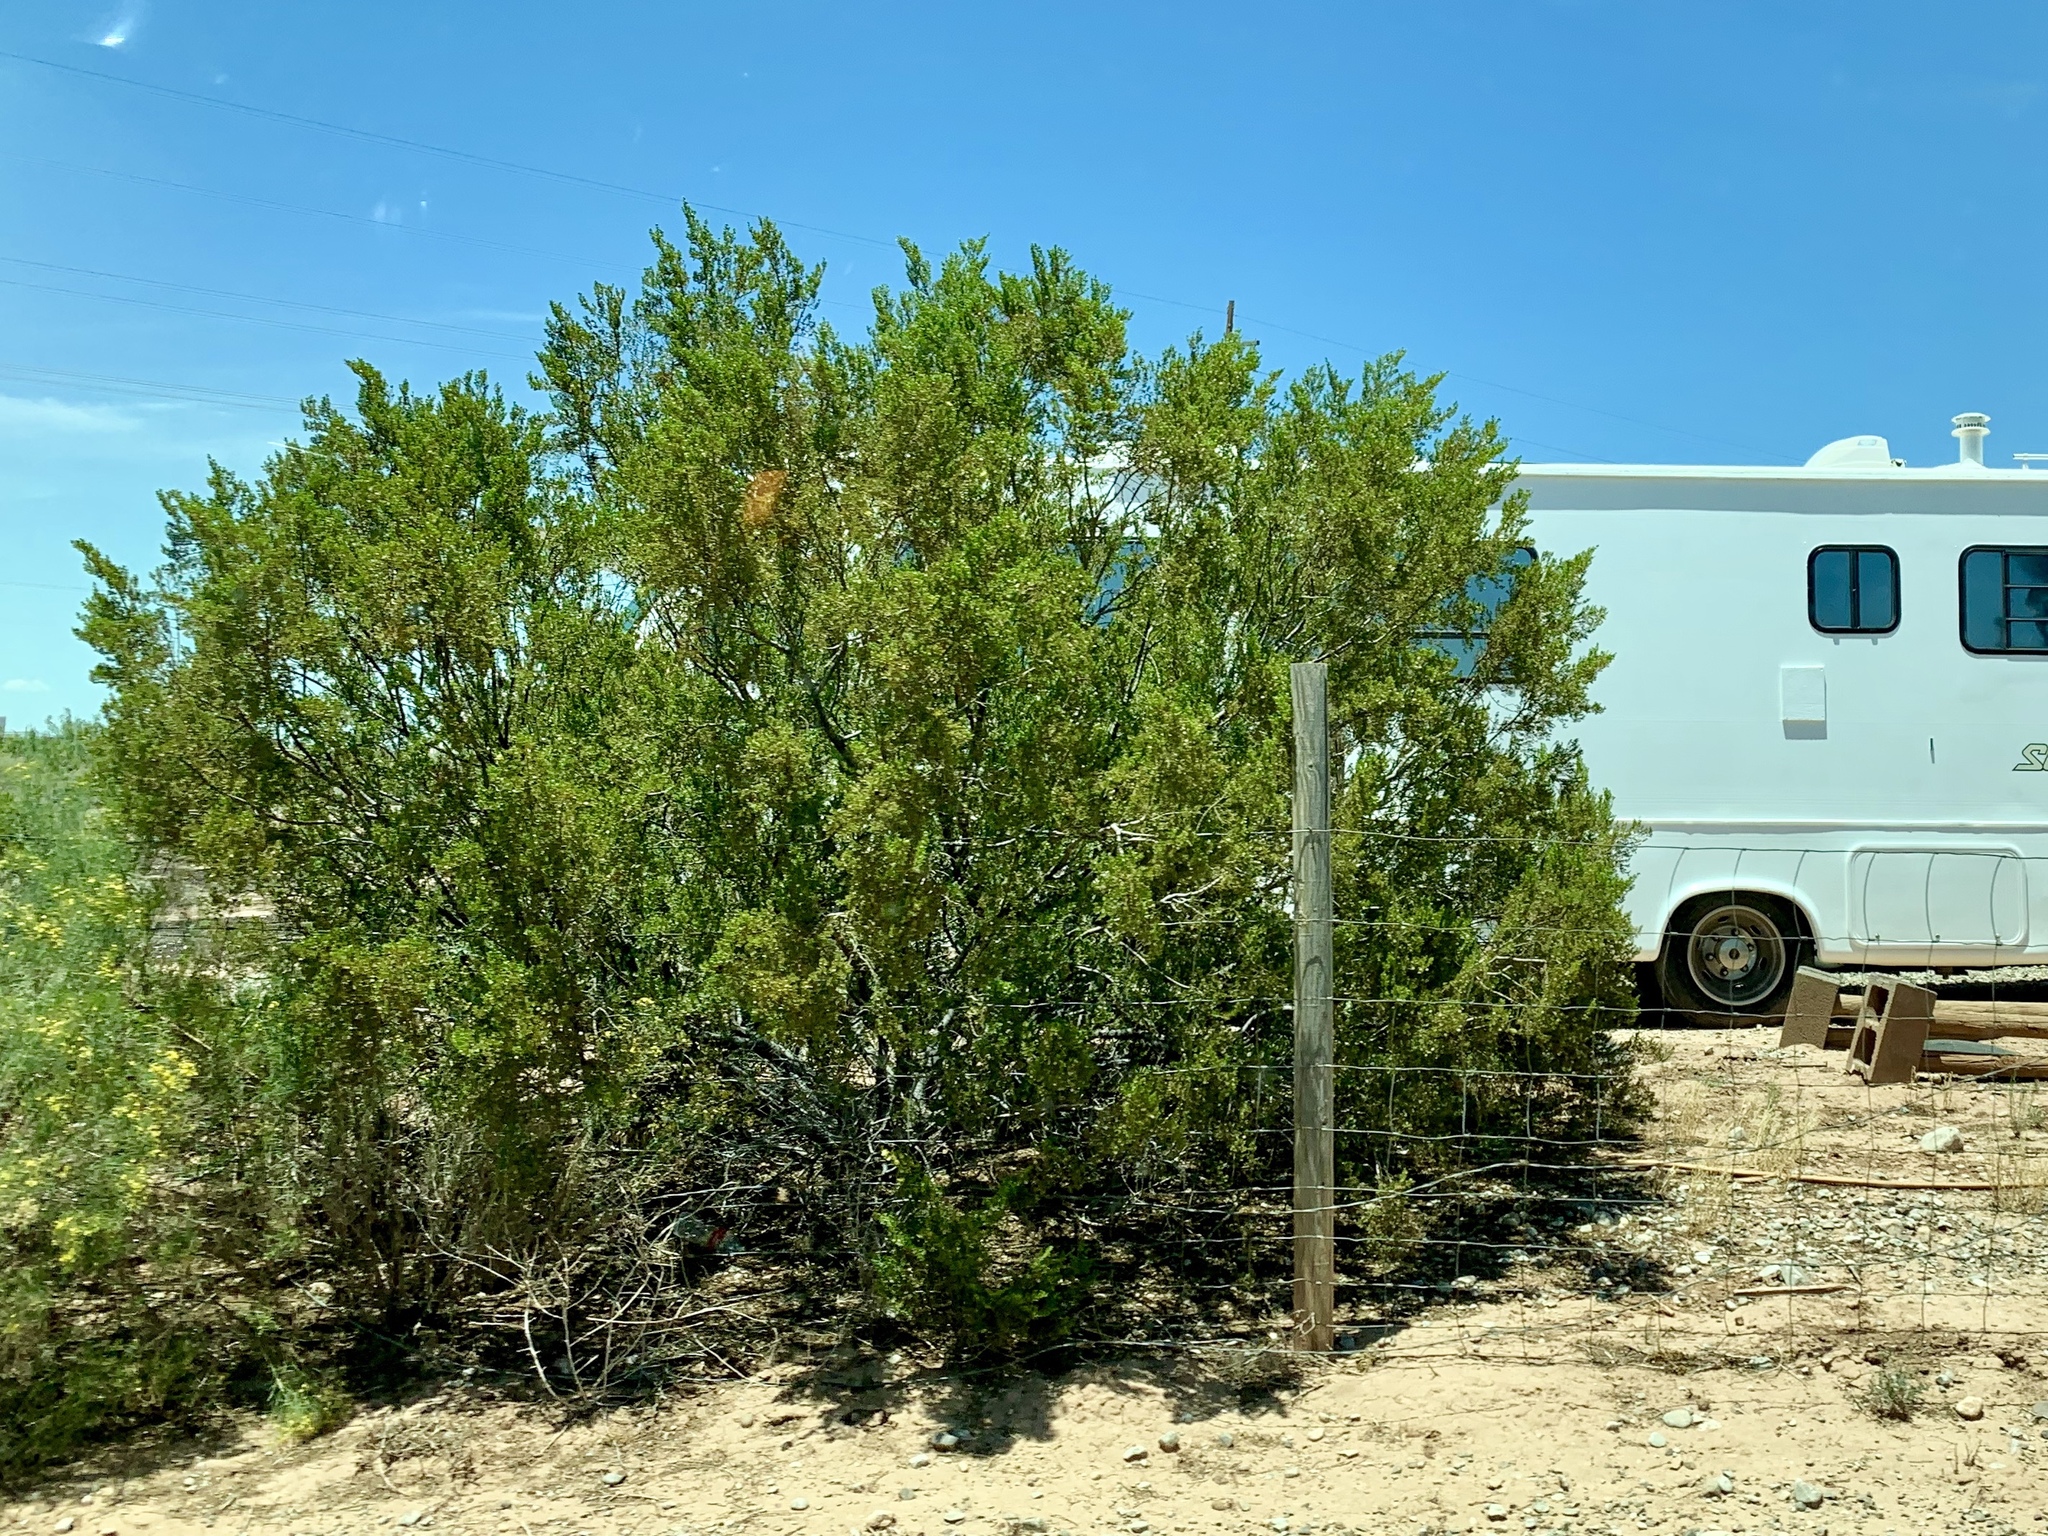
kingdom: Plantae
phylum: Tracheophyta
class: Magnoliopsida
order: Zygophyllales
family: Zygophyllaceae
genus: Larrea
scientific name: Larrea tridentata
